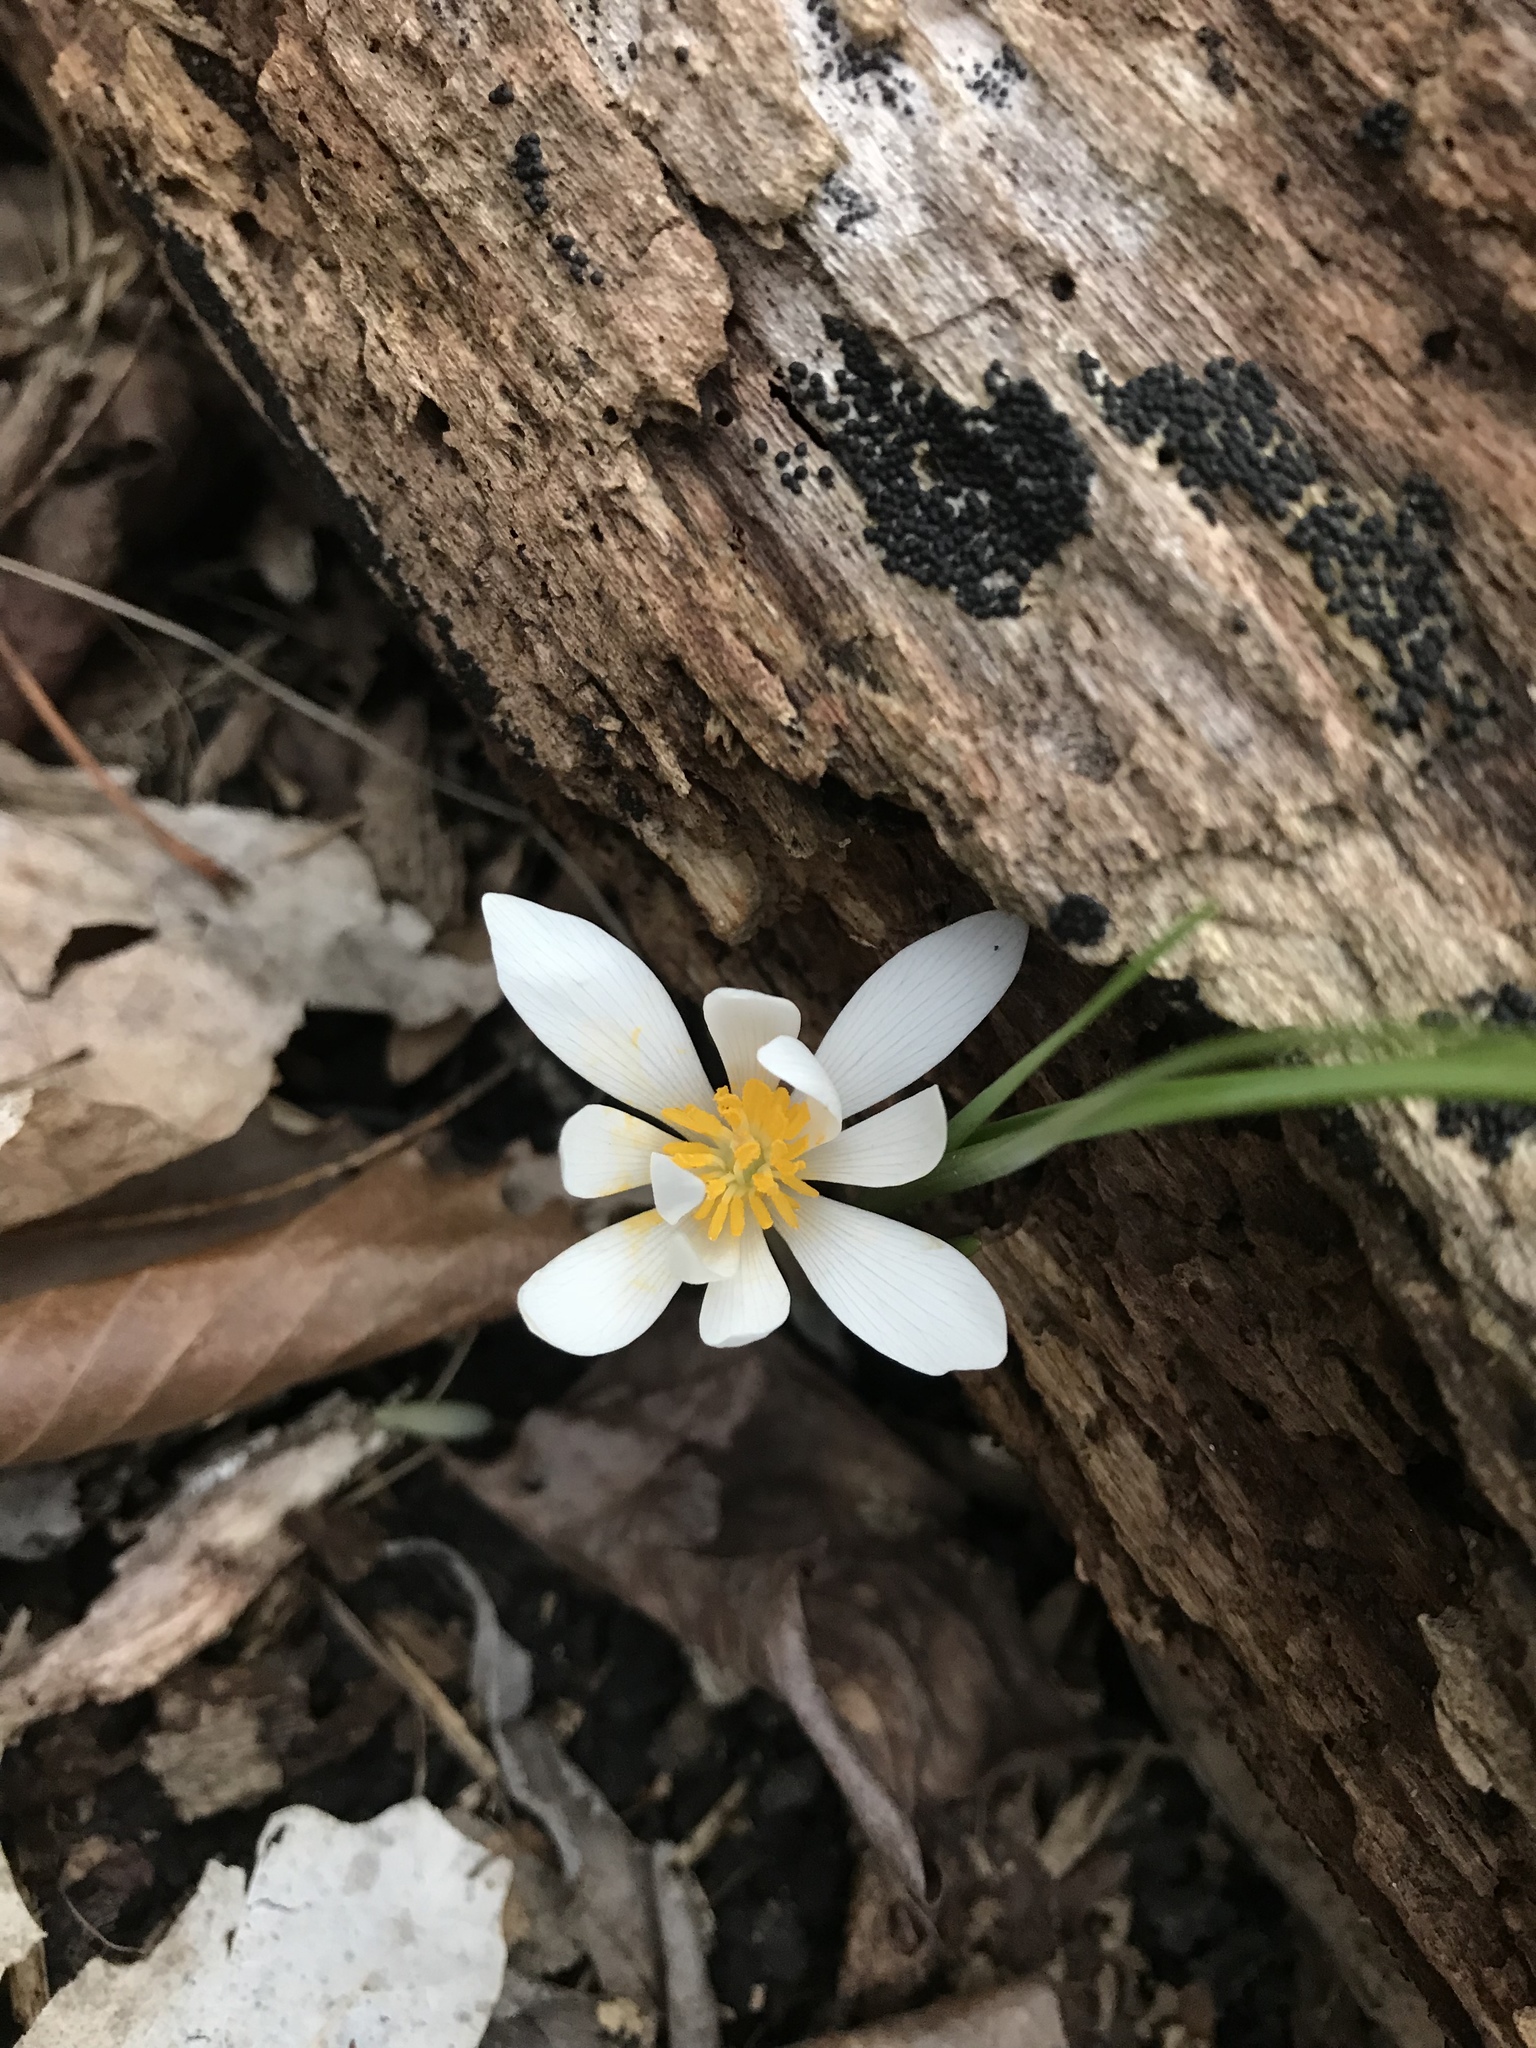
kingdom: Plantae
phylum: Tracheophyta
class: Magnoliopsida
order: Ranunculales
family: Papaveraceae
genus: Sanguinaria
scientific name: Sanguinaria canadensis
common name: Bloodroot
